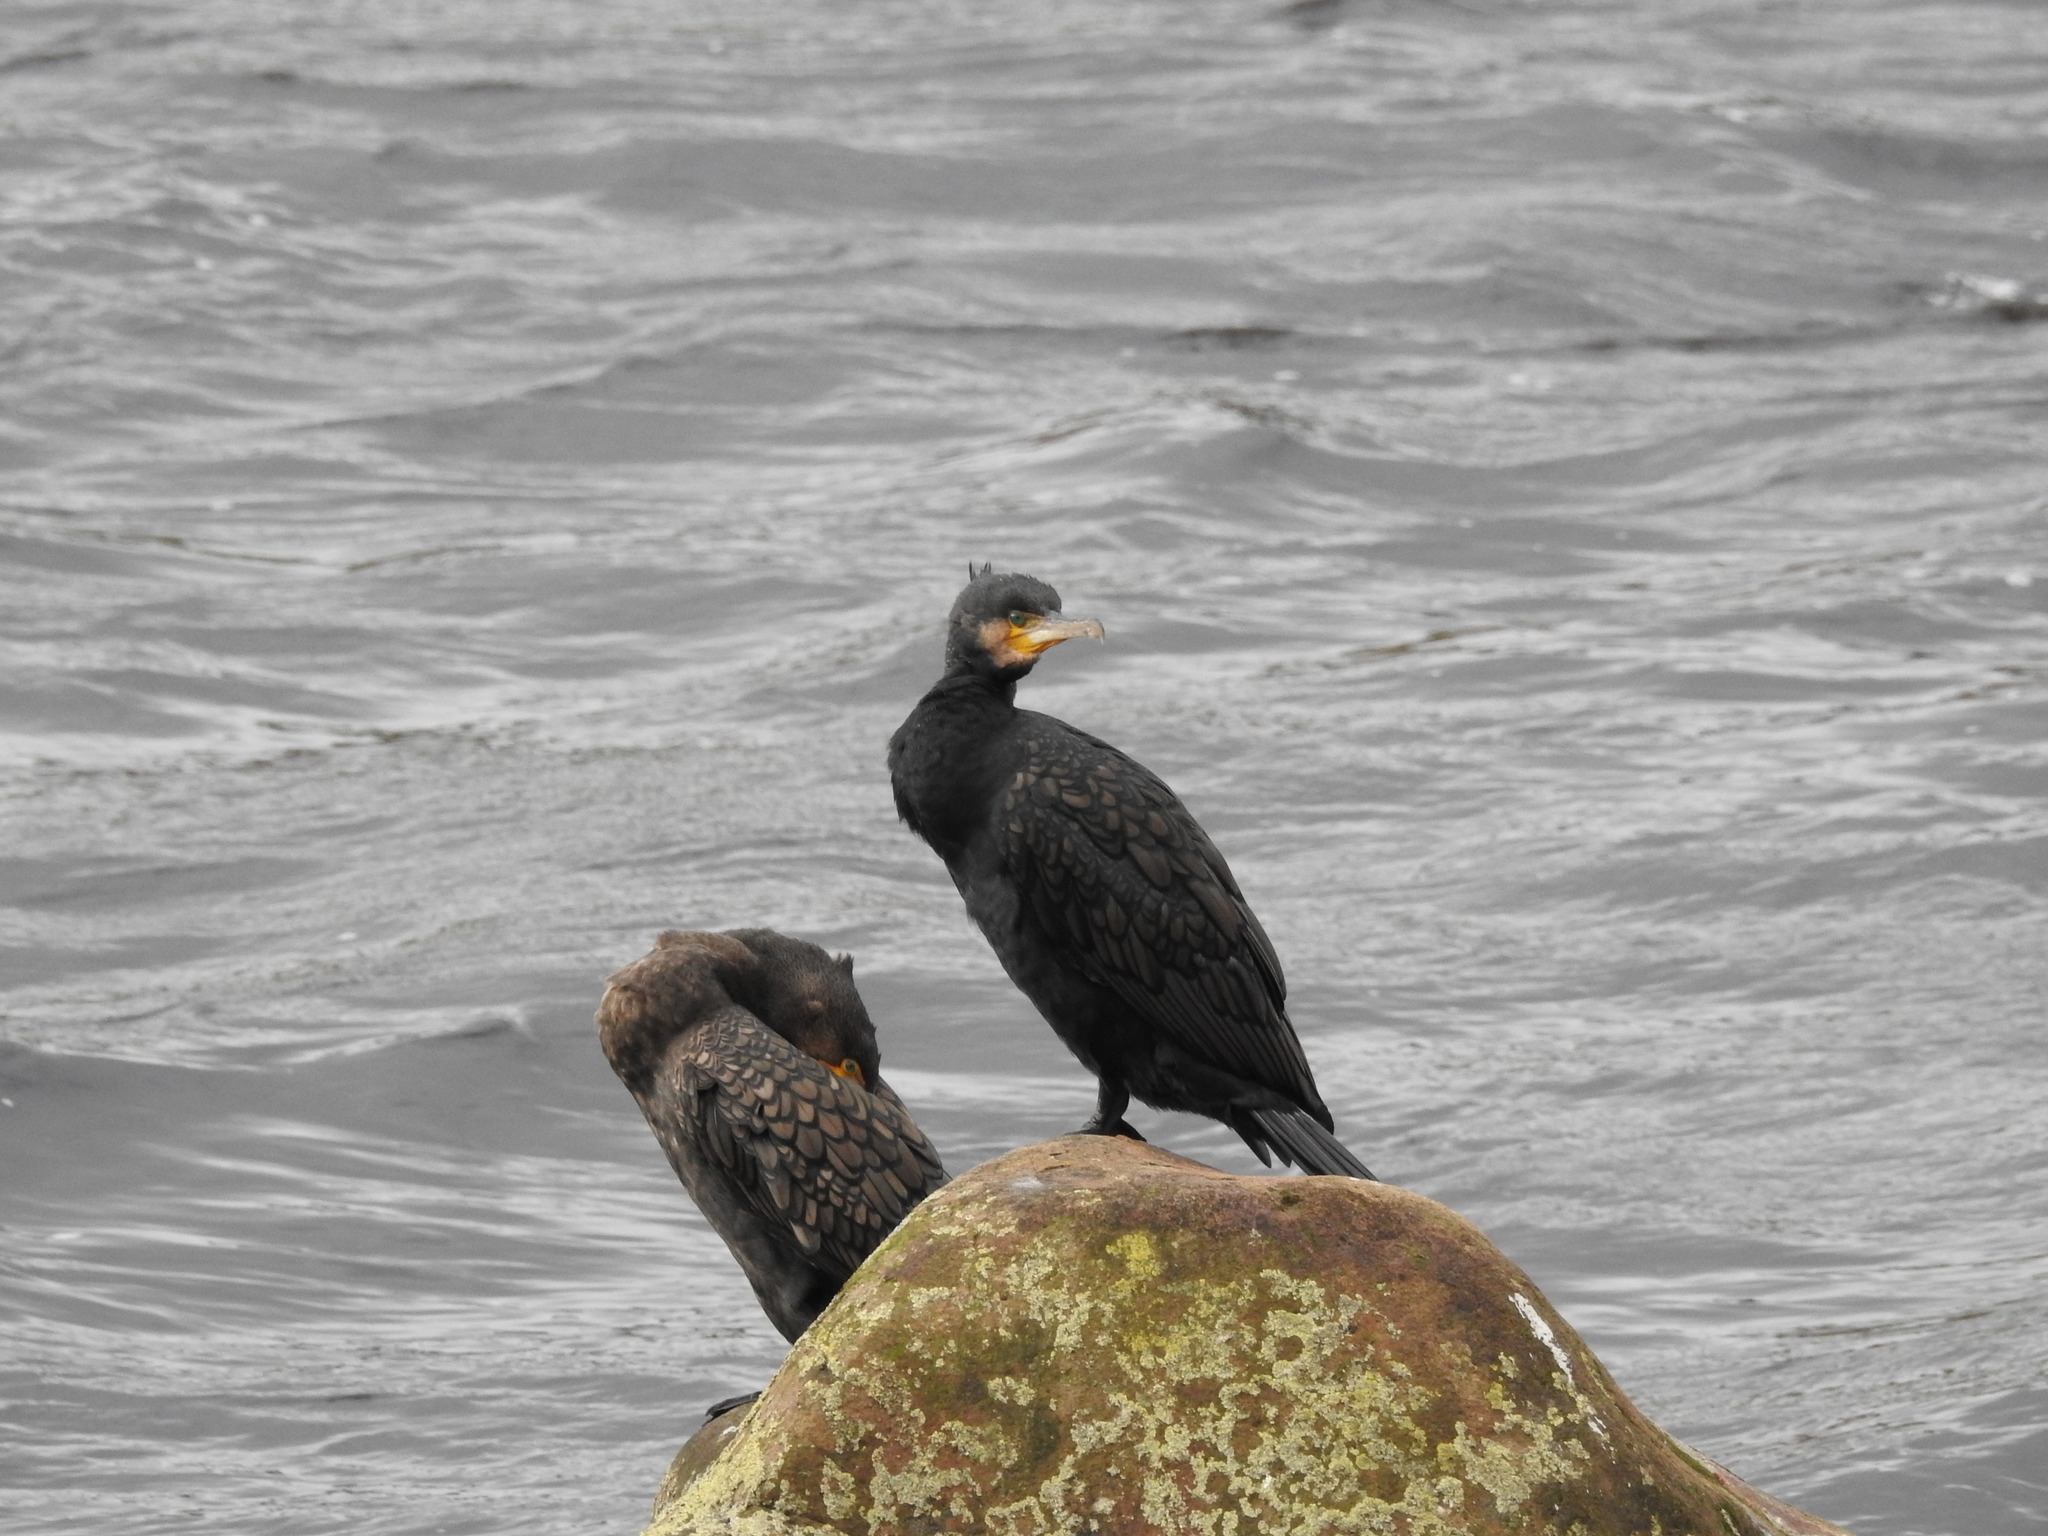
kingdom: Animalia
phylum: Chordata
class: Aves
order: Suliformes
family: Phalacrocoracidae
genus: Phalacrocorax
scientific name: Phalacrocorax carbo
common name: Great cormorant
